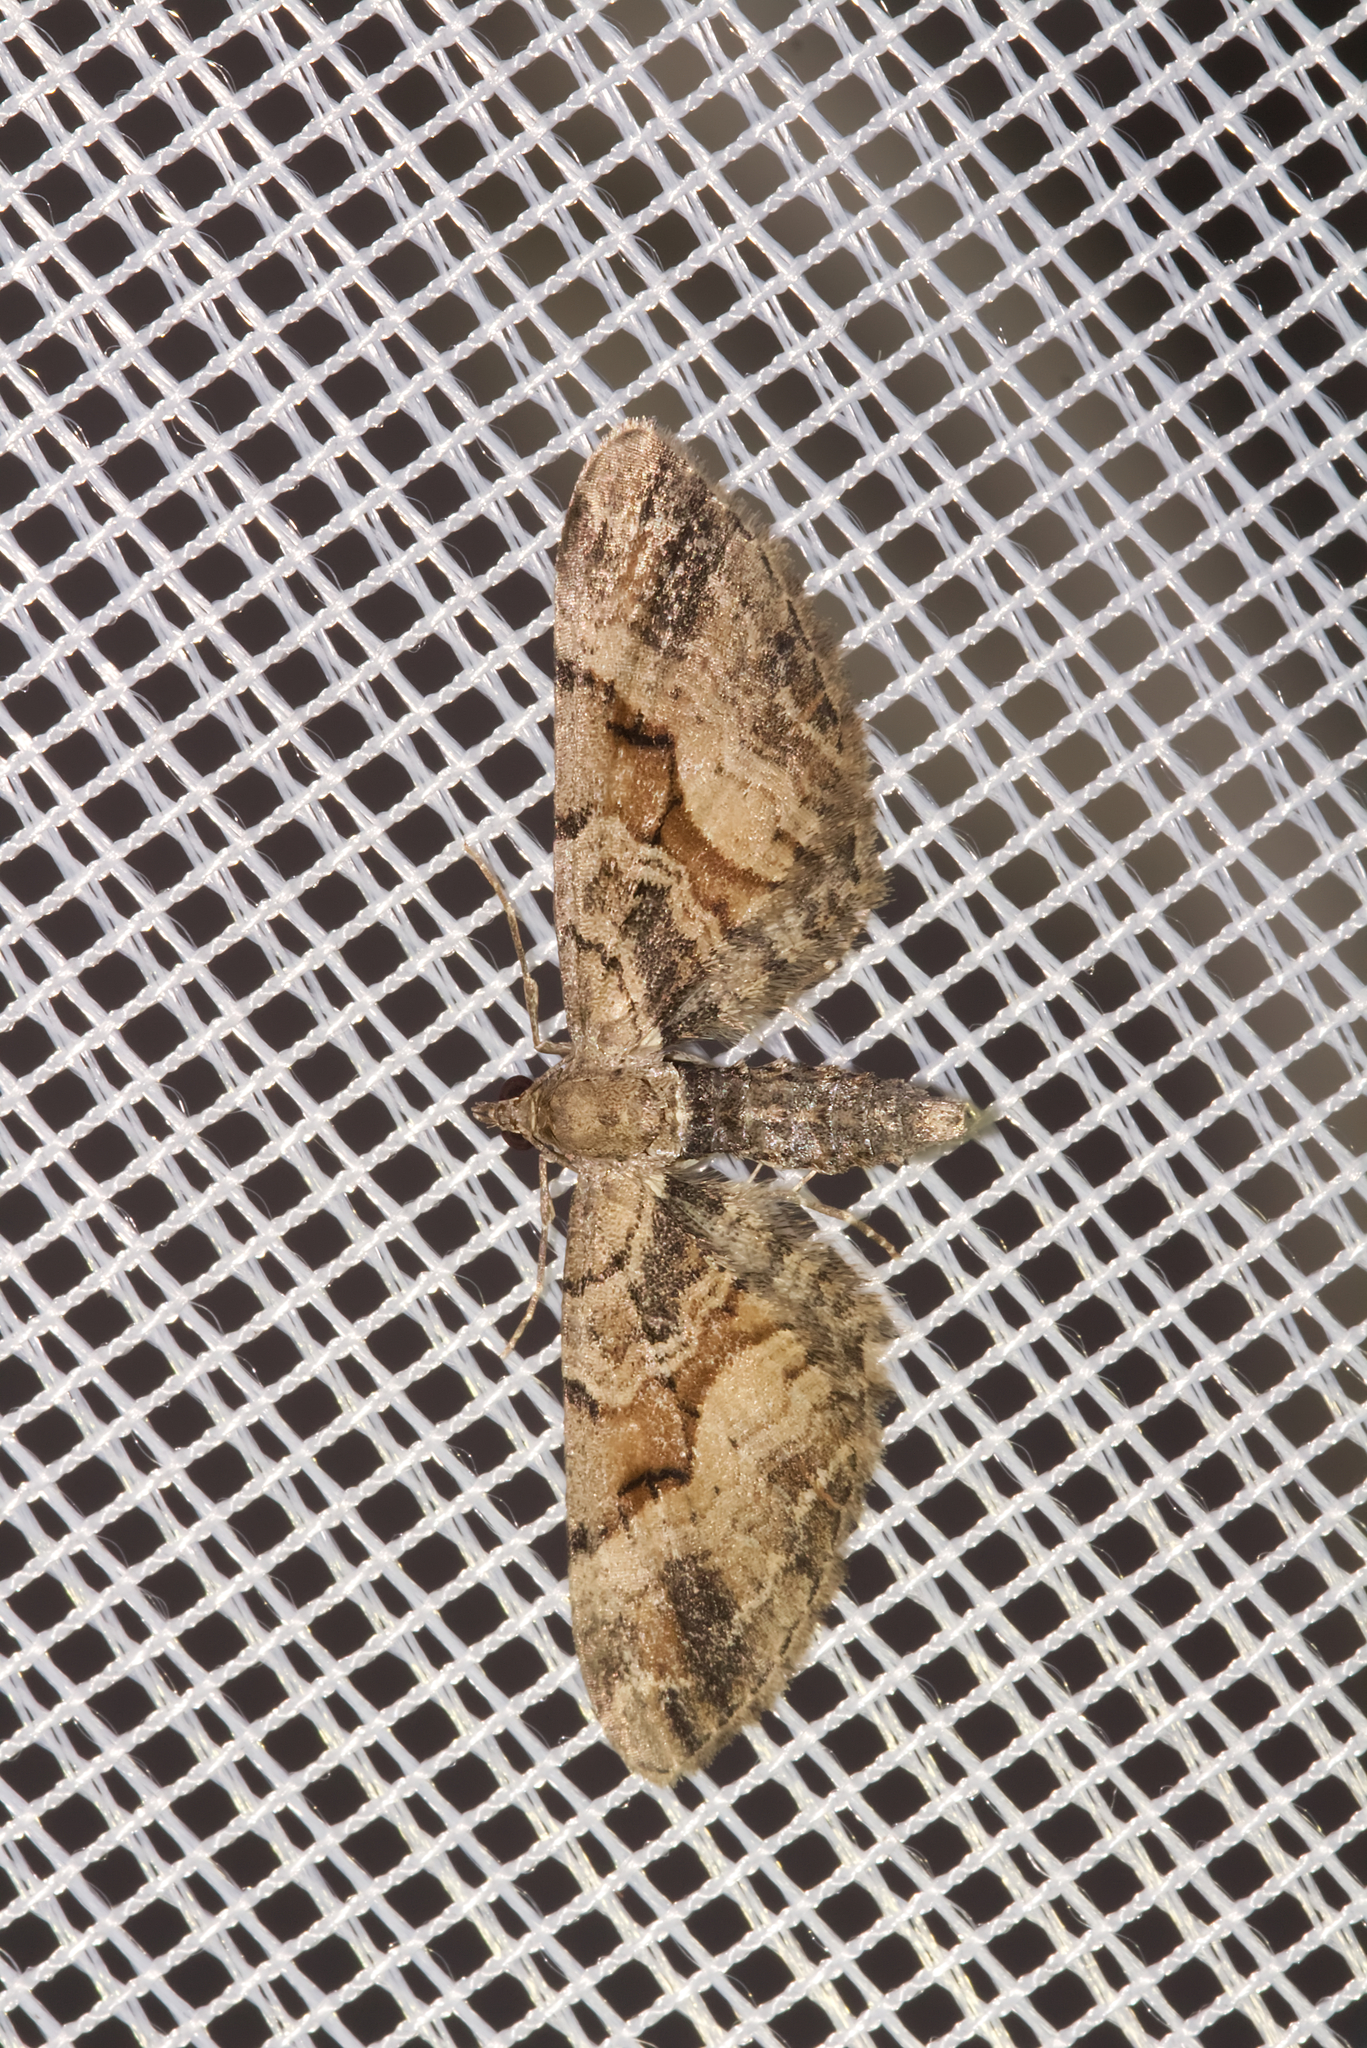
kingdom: Animalia
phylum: Arthropoda
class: Insecta
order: Lepidoptera
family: Geometridae
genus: Eupithecia
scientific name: Eupithecia sinuosaria
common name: Goosefoot pug
